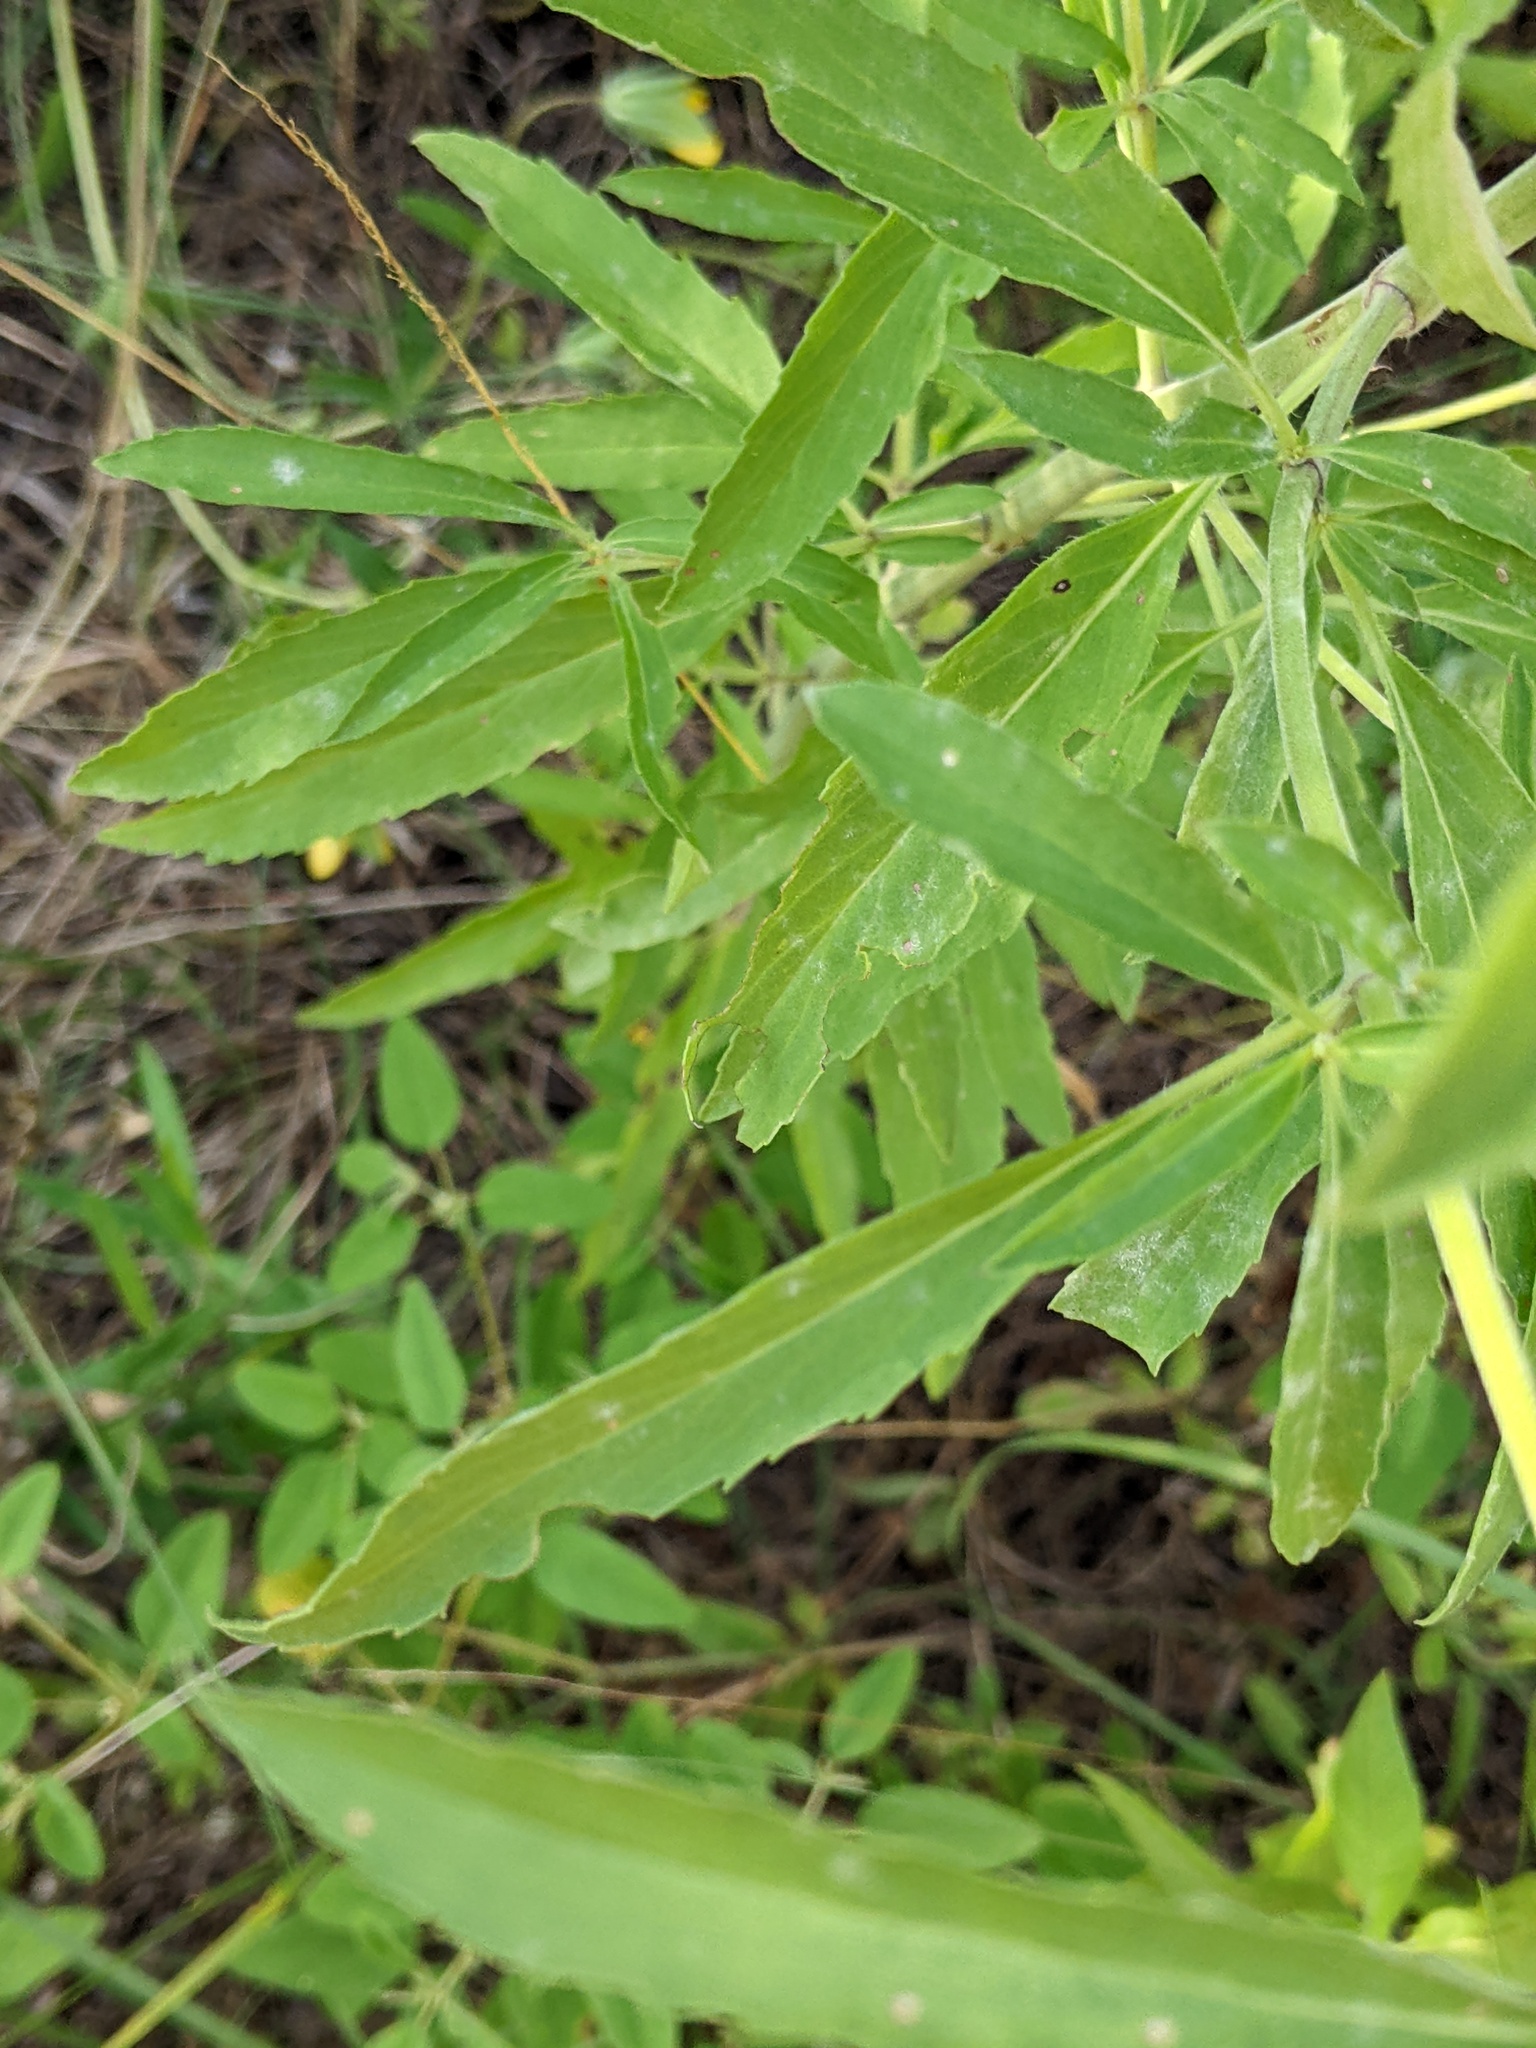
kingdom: Plantae
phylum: Tracheophyta
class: Magnoliopsida
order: Lamiales
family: Lamiaceae
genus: Monarda
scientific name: Monarda citriodora
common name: Lemon beebalm
